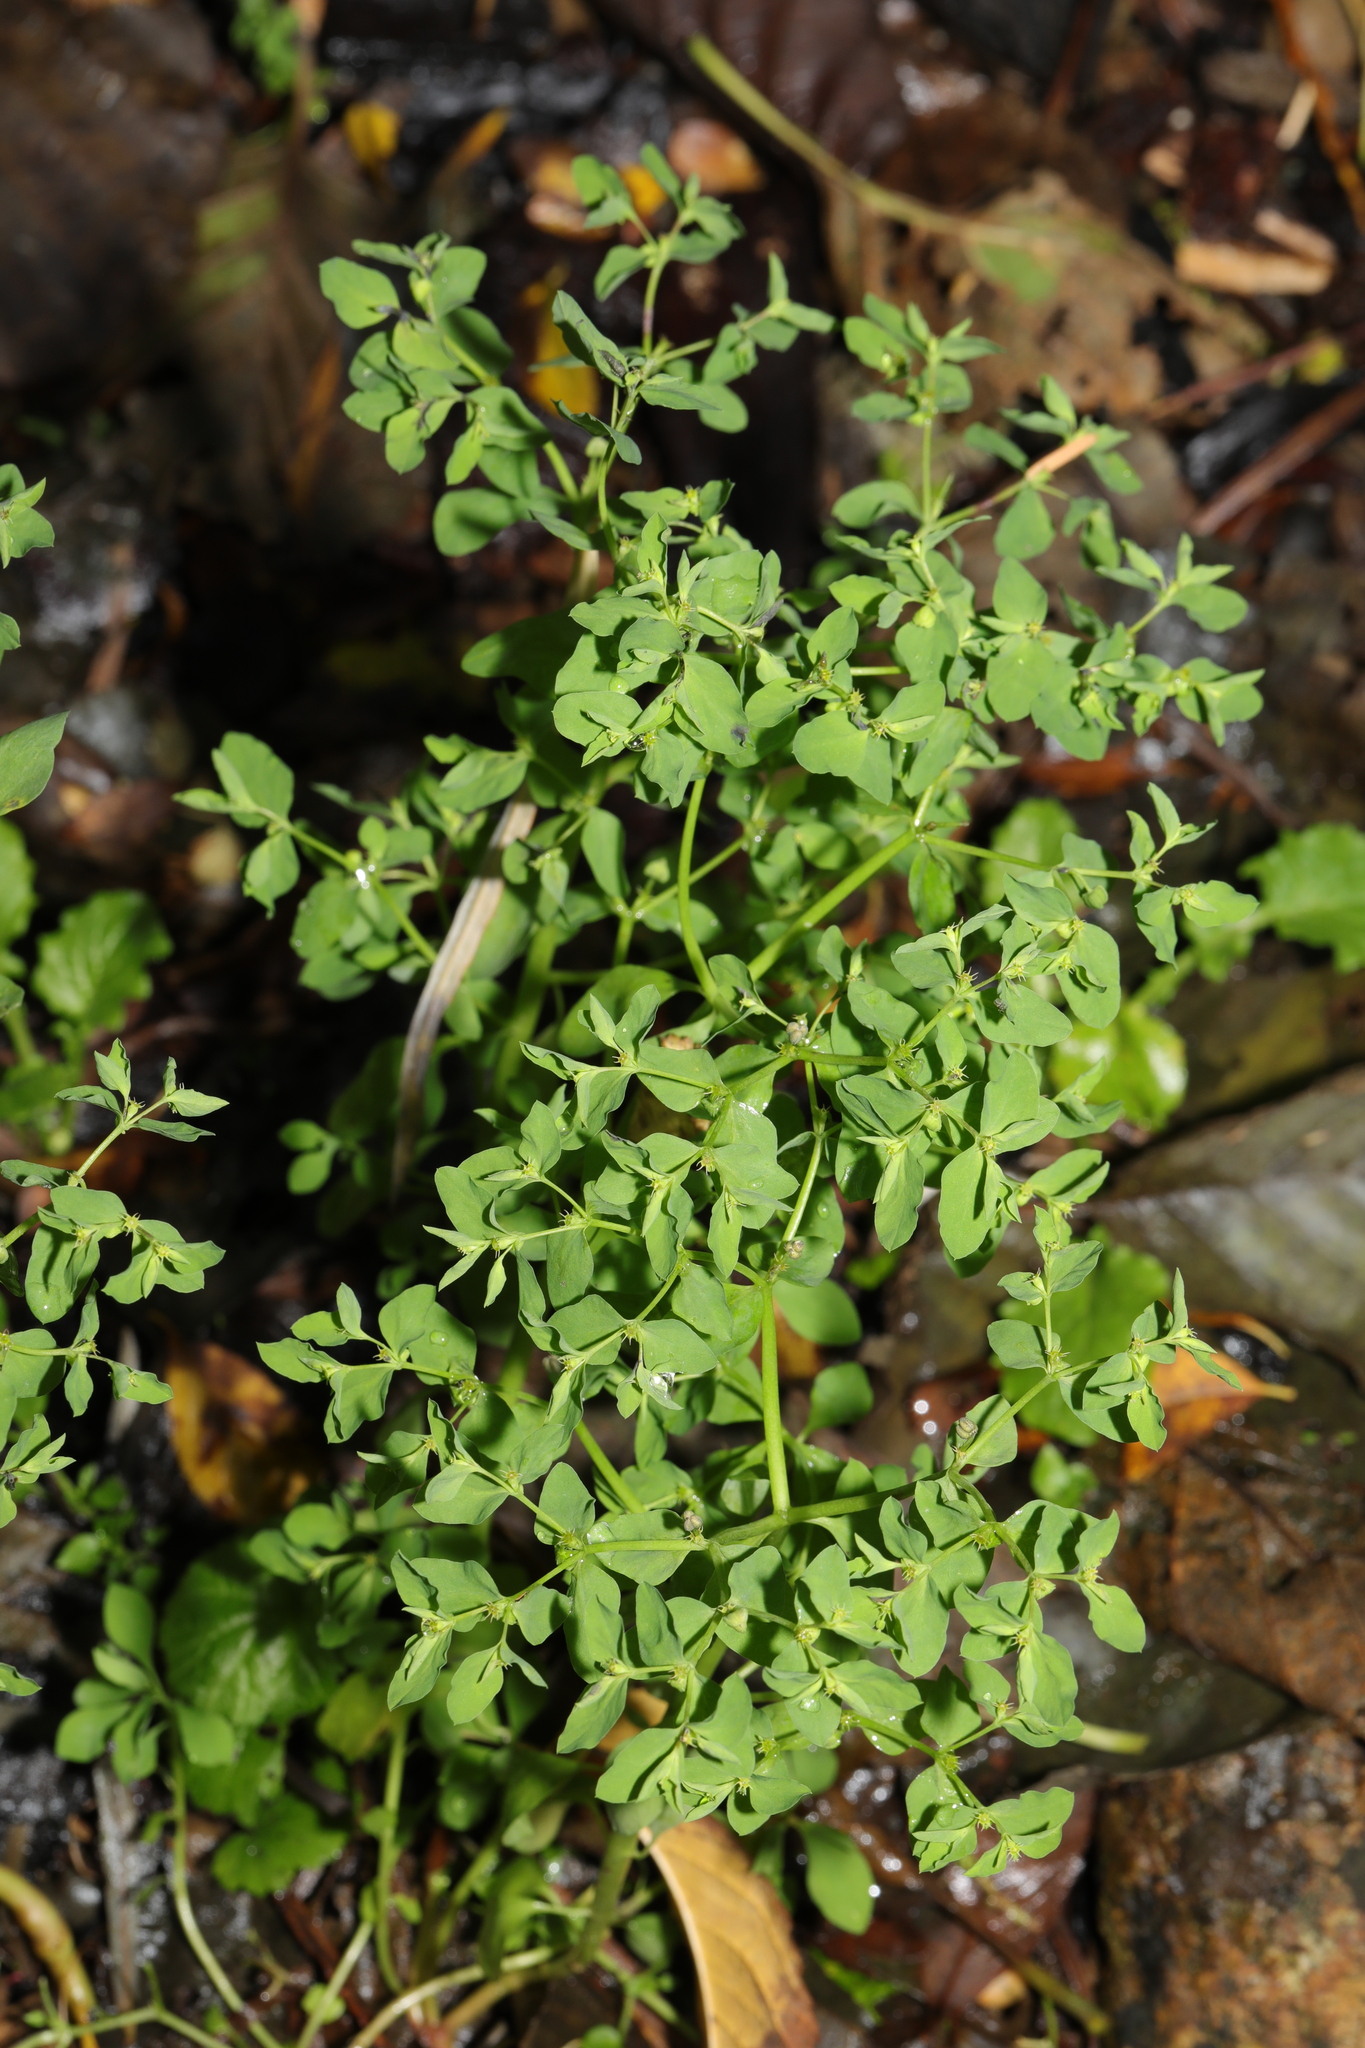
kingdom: Plantae
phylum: Tracheophyta
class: Magnoliopsida
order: Malpighiales
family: Euphorbiaceae
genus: Euphorbia
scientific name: Euphorbia peplus
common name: Petty spurge
